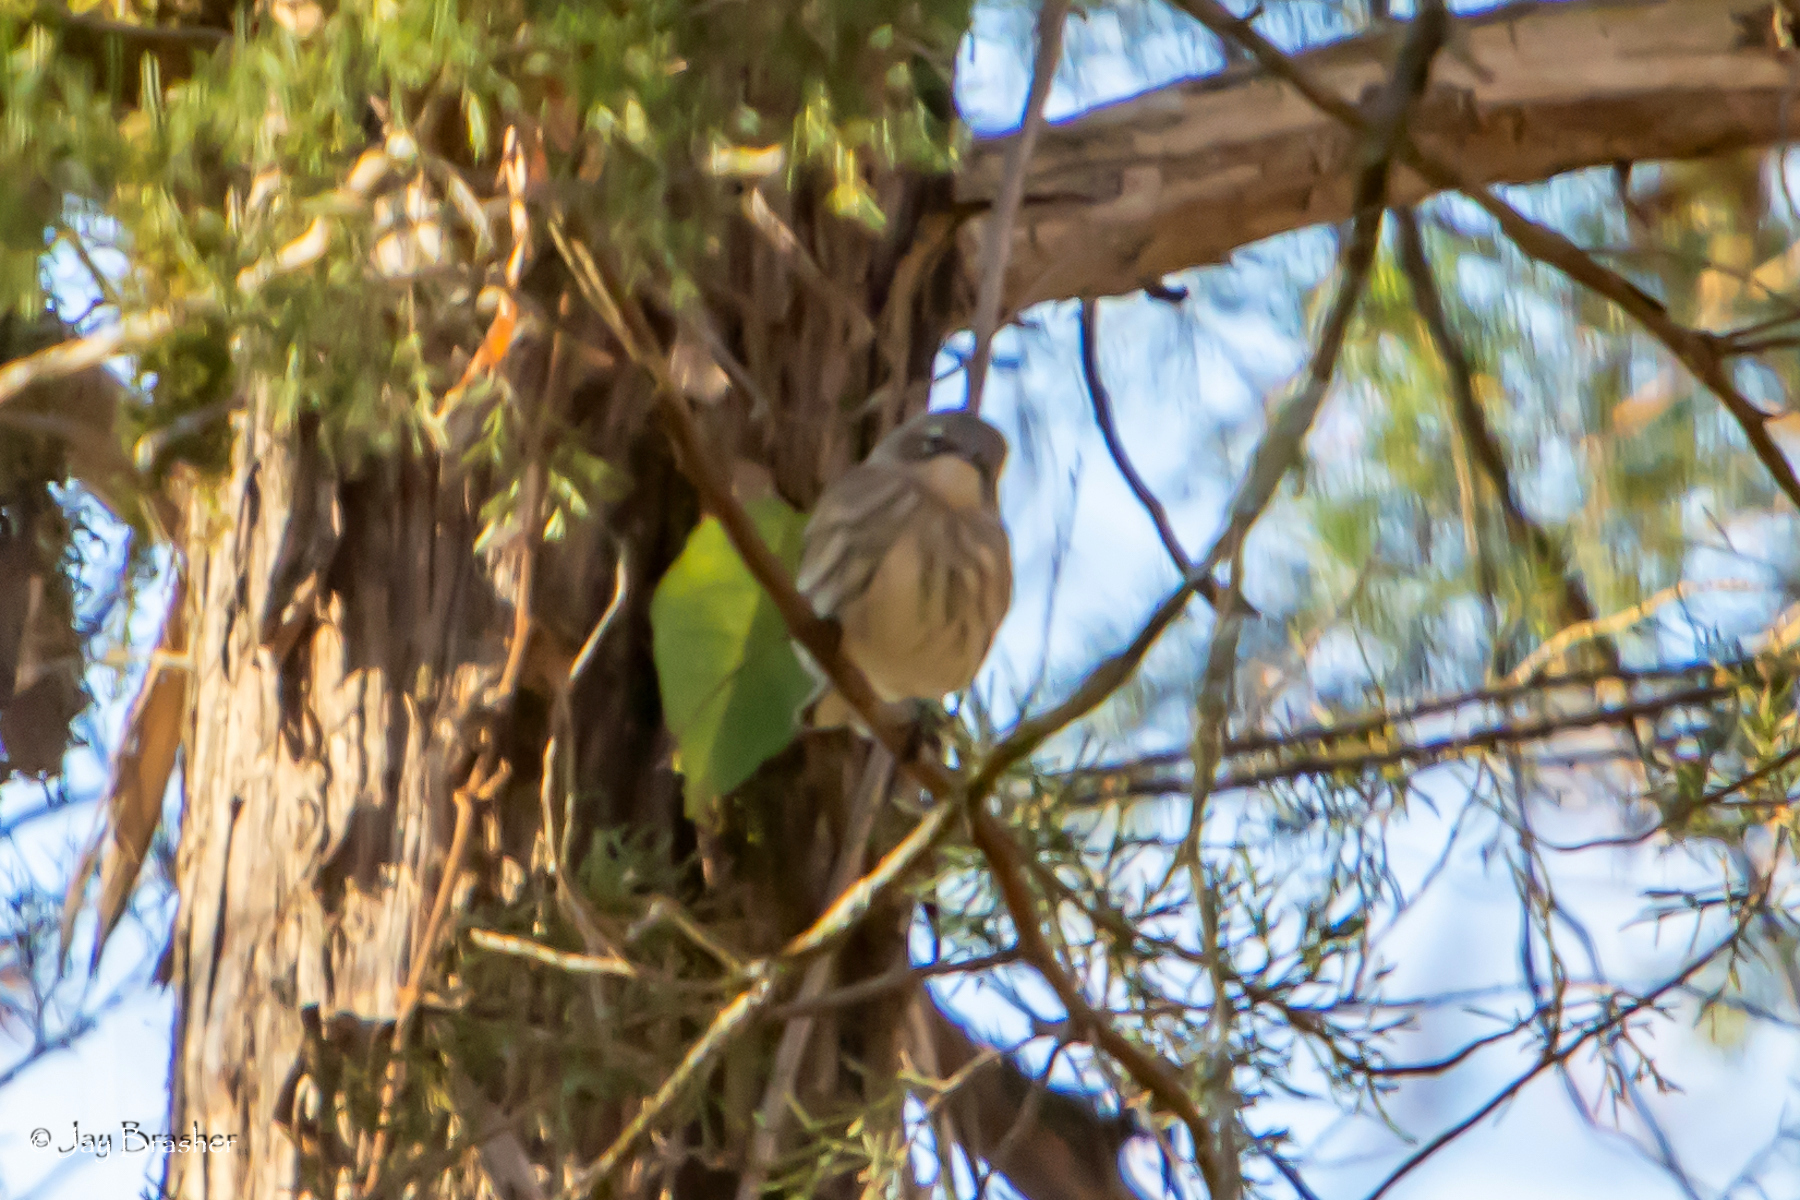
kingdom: Animalia
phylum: Chordata
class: Aves
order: Passeriformes
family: Parulidae
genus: Setophaga
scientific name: Setophaga coronata
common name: Myrtle warbler
